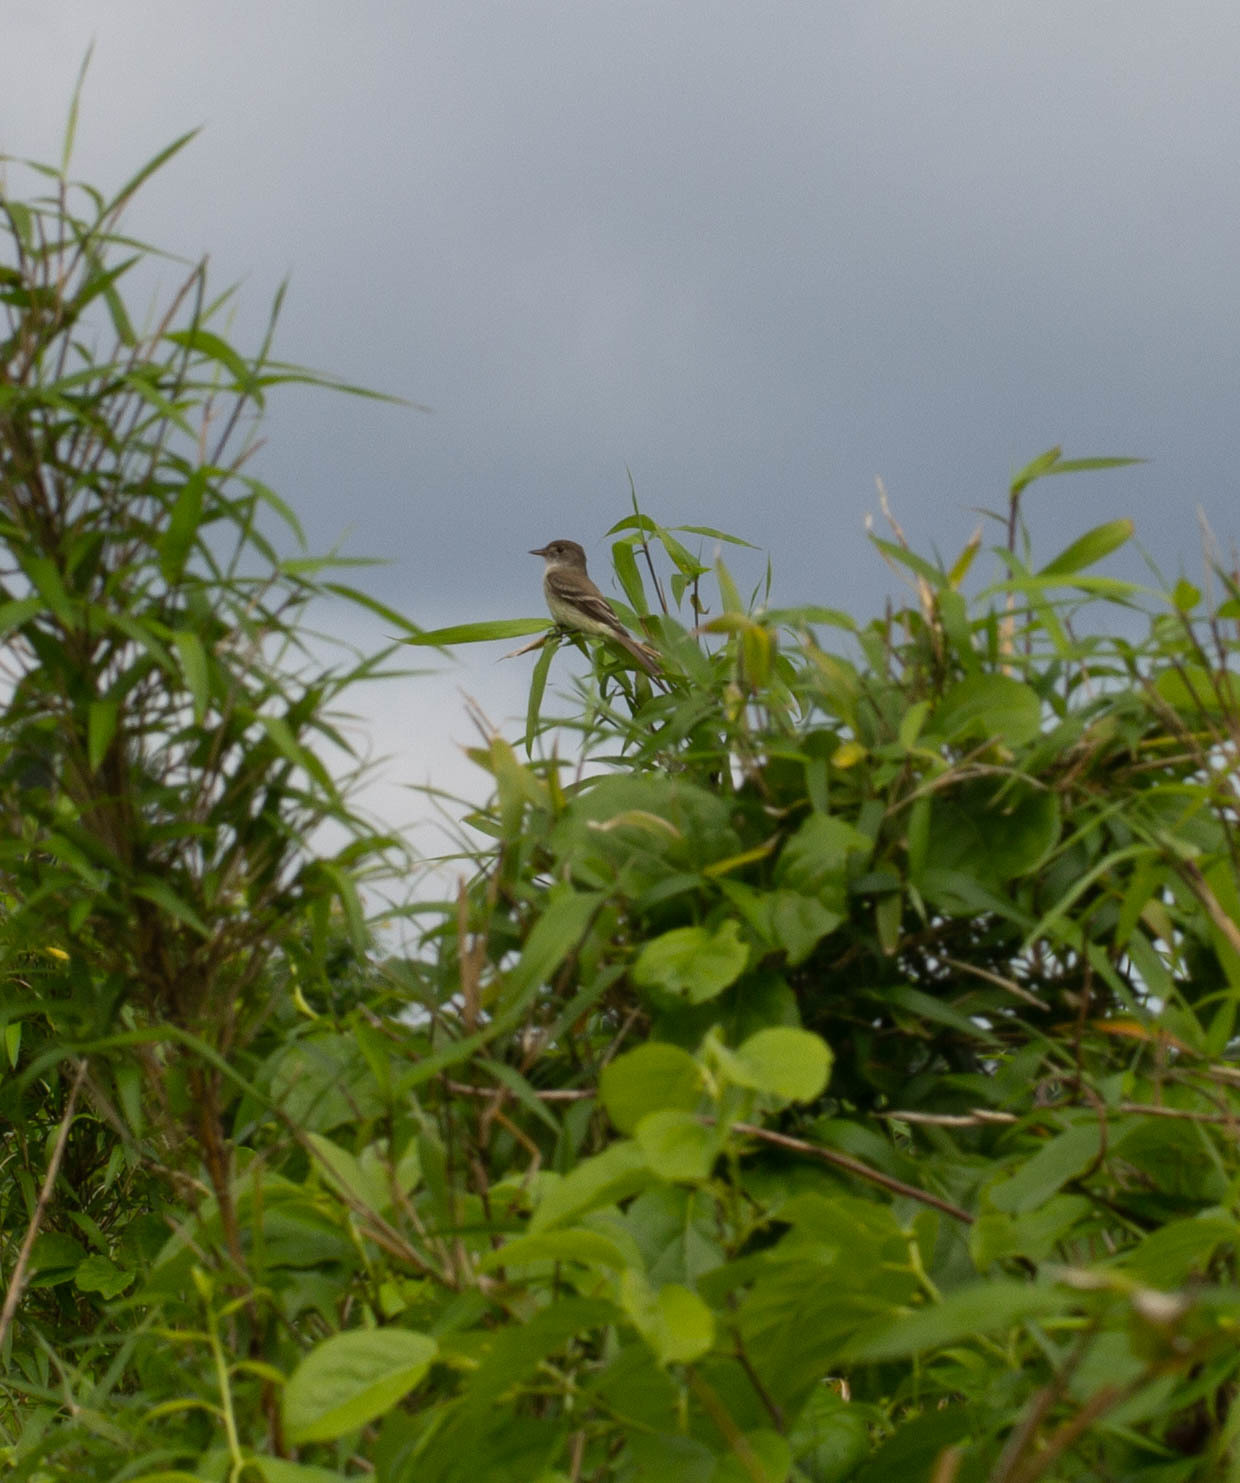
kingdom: Animalia
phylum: Chordata
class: Aves
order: Passeriformes
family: Tyrannidae
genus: Empidonax
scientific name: Empidonax traillii
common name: Willow flycatcher
